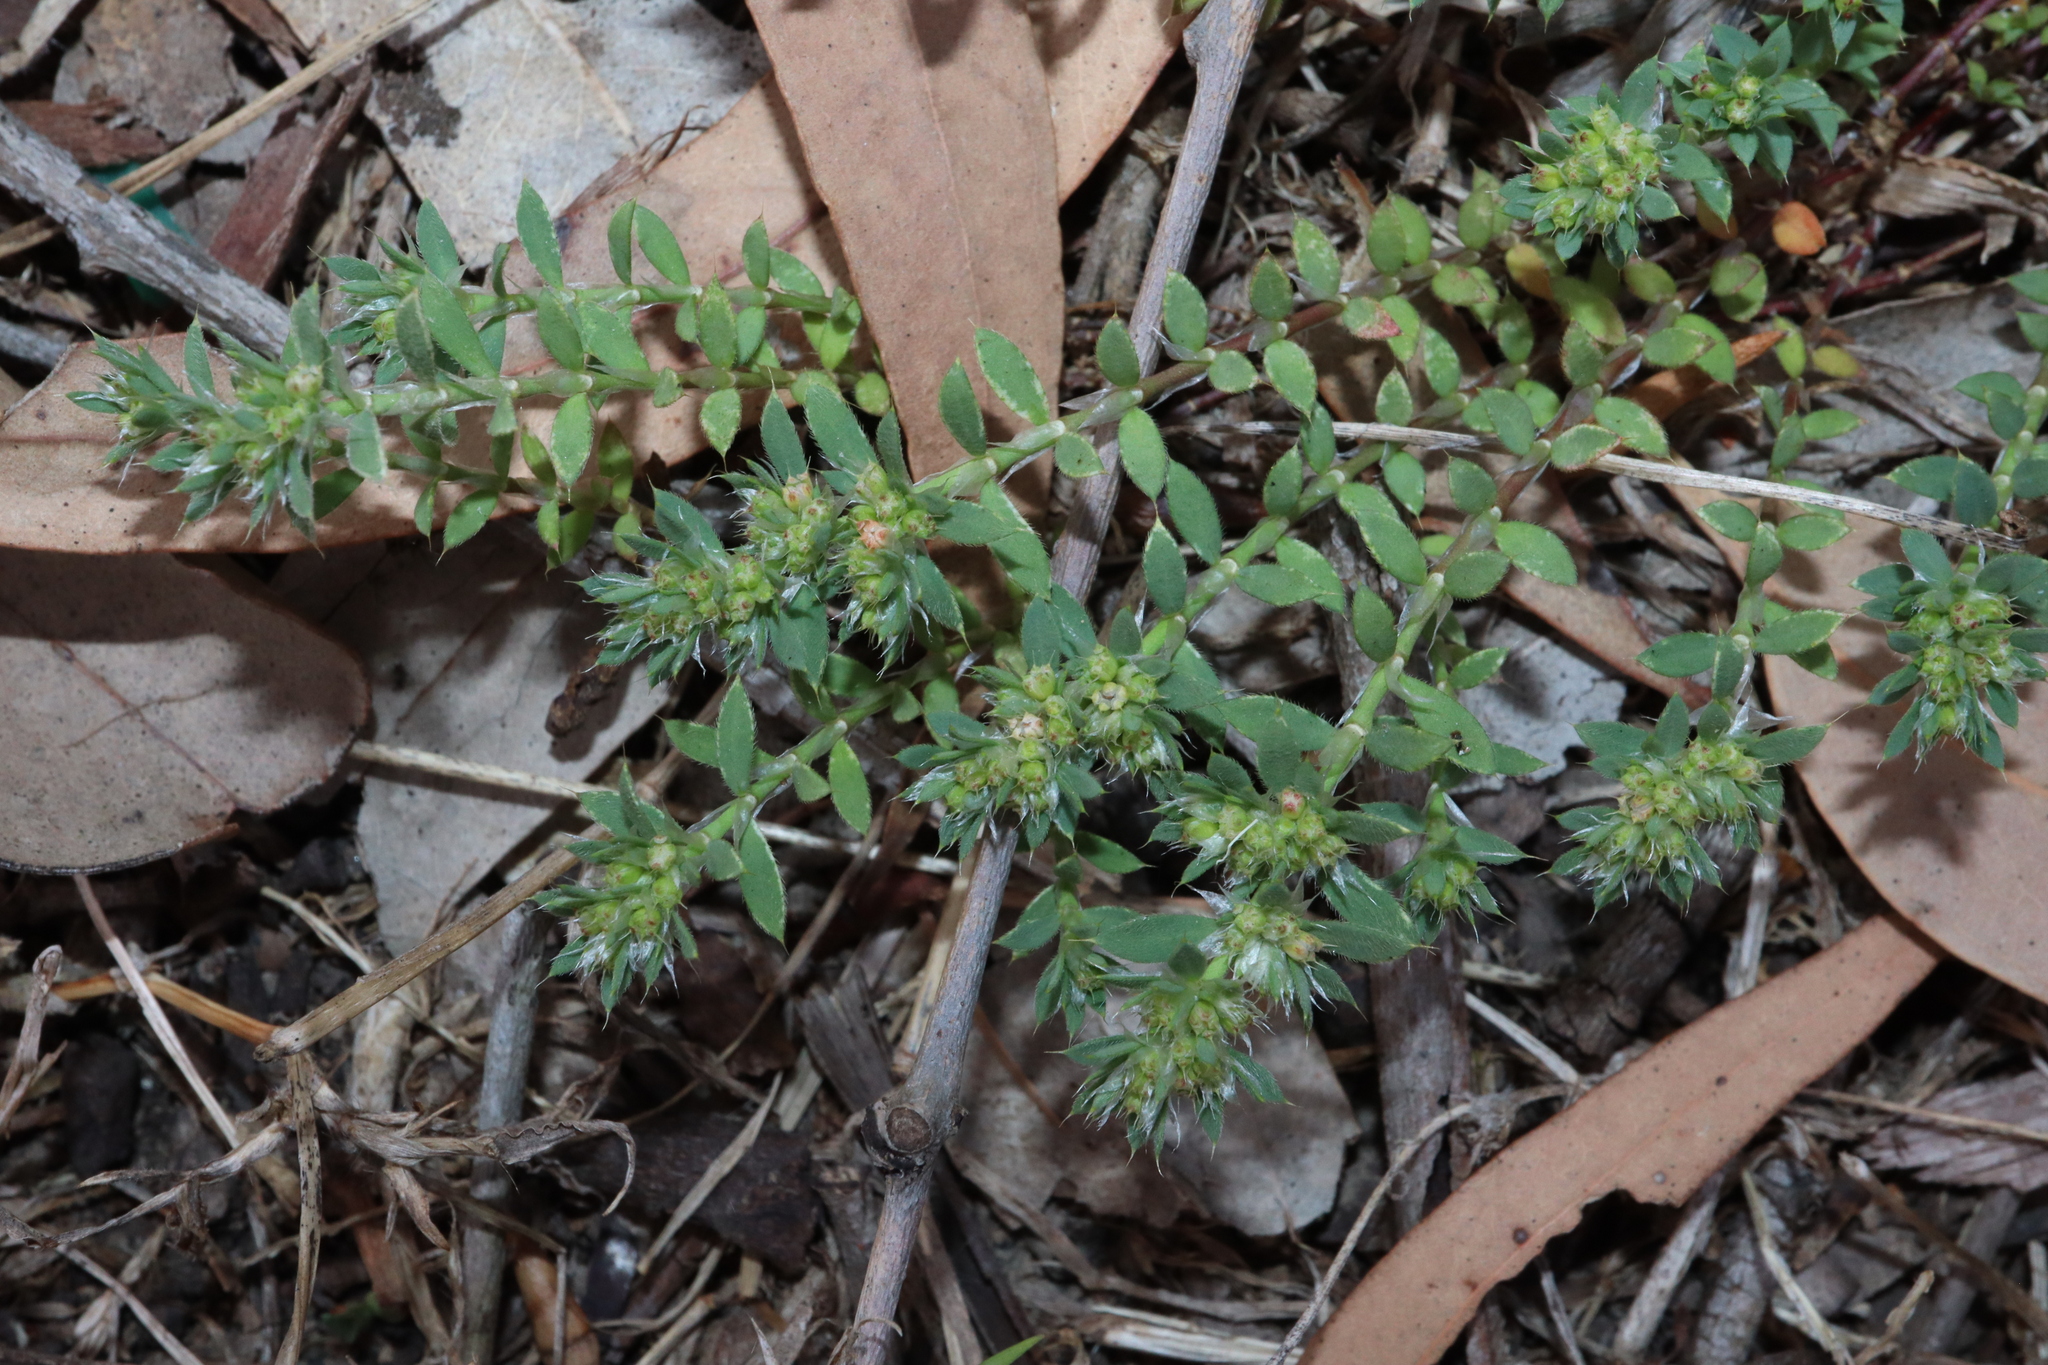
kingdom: Plantae
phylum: Tracheophyta
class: Magnoliopsida
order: Caryophyllales
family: Caryophyllaceae
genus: Paronychia
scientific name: Paronychia brasiliana
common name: Brazilian whitlow
